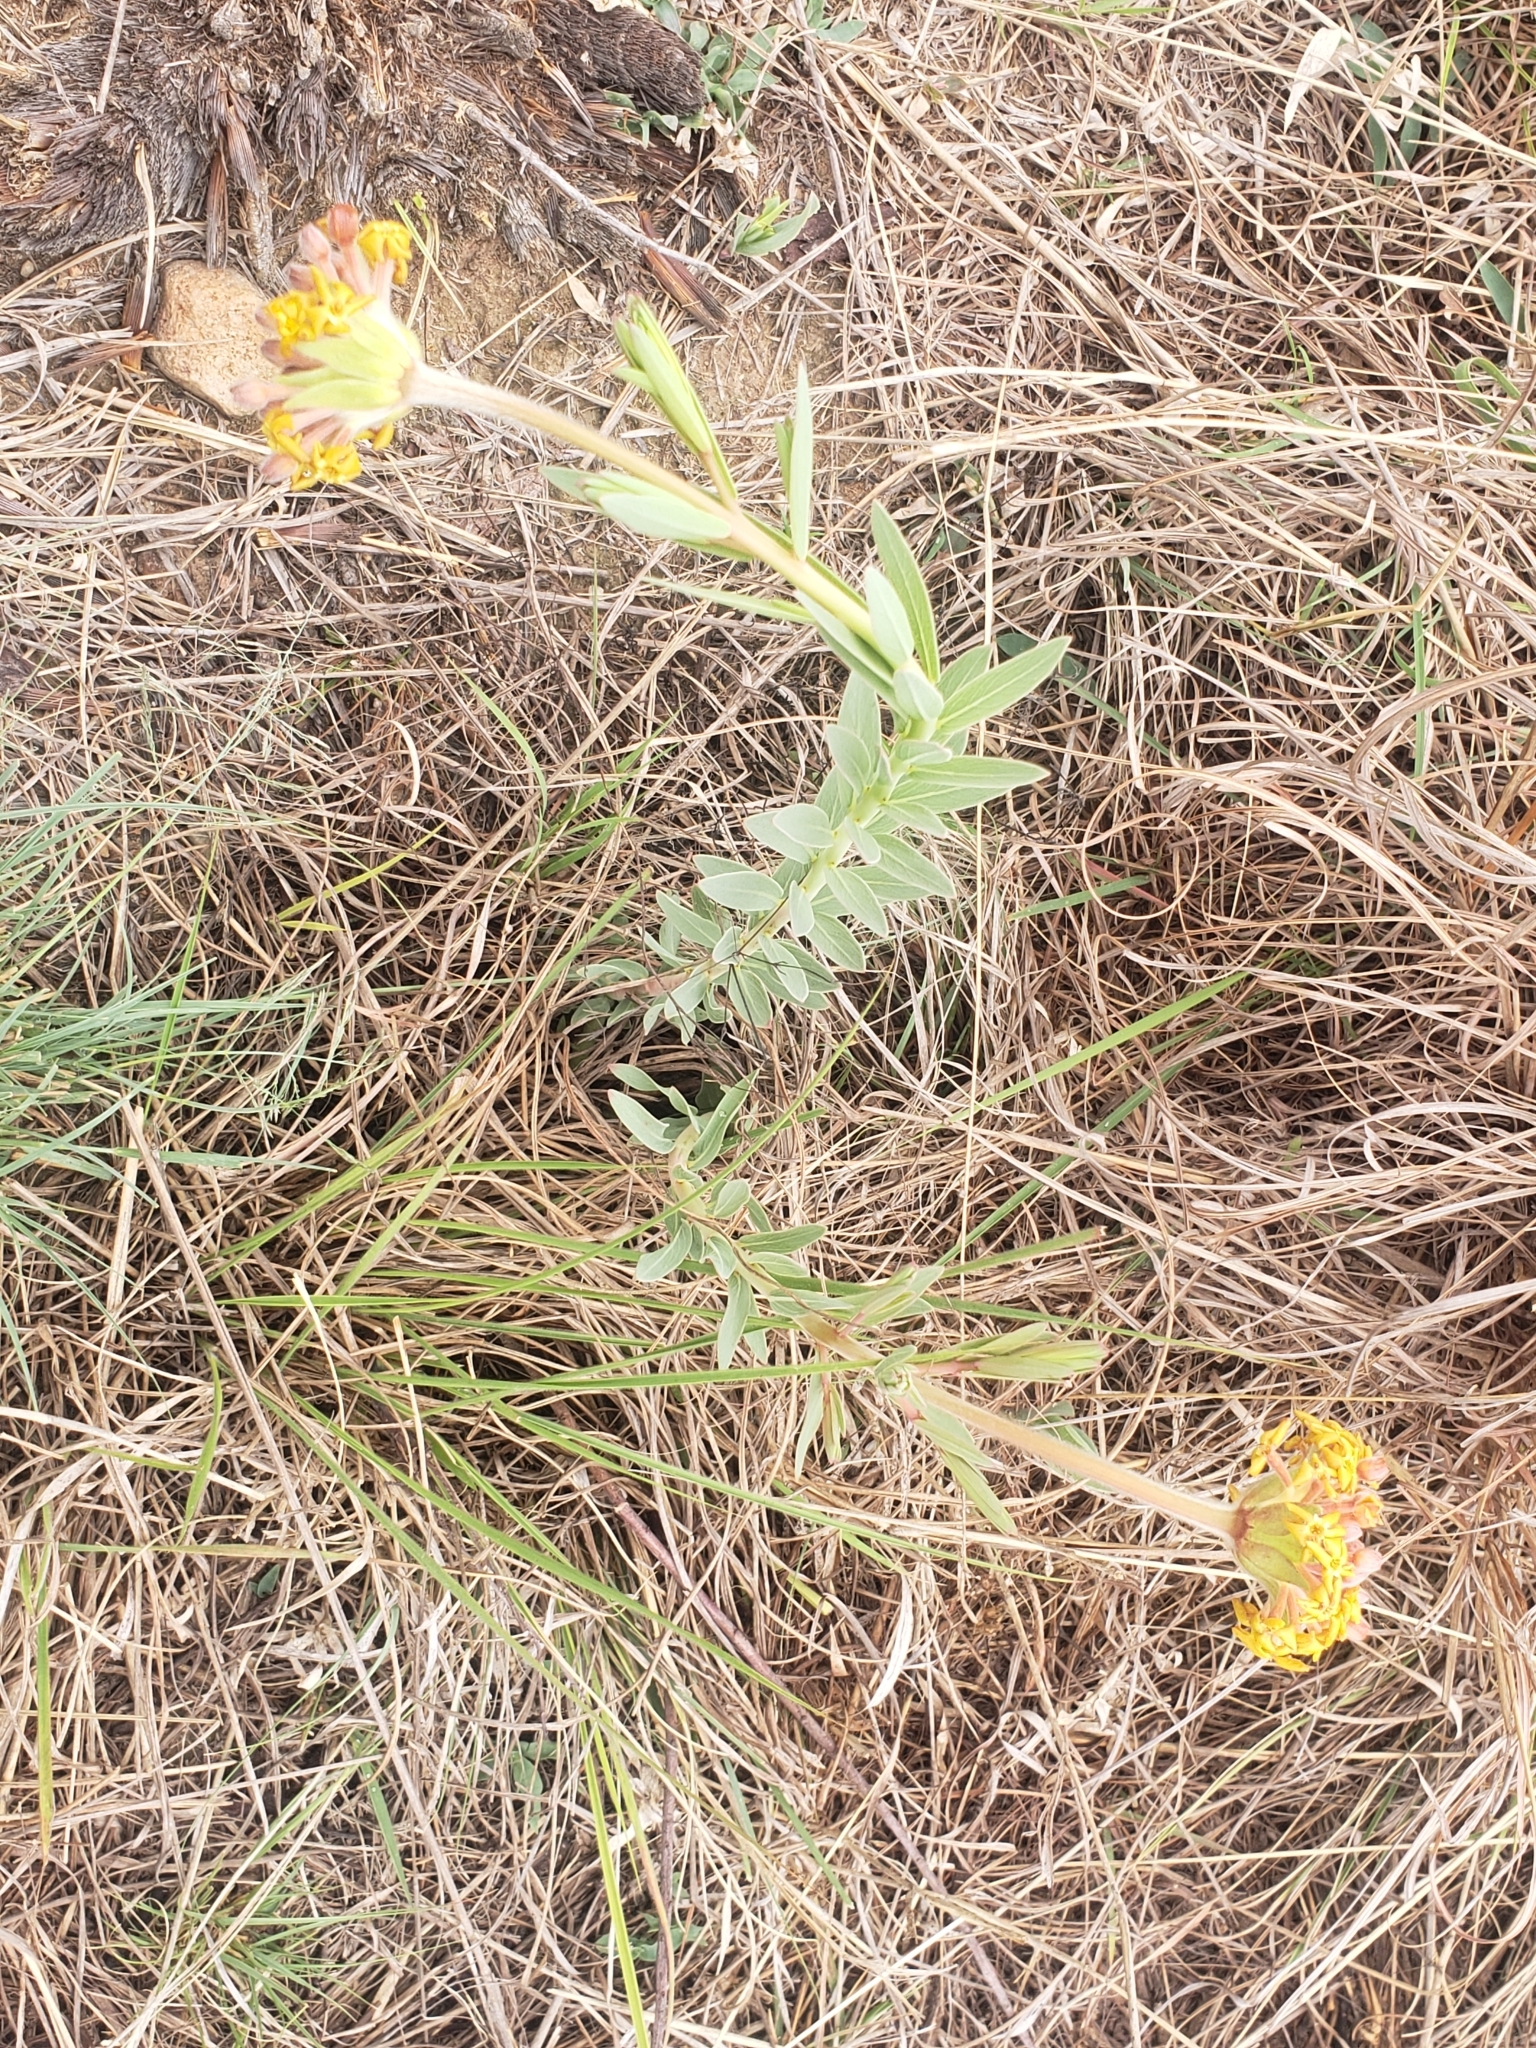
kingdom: Plantae
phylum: Tracheophyta
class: Magnoliopsida
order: Malvales
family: Thymelaeaceae
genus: Gnidia
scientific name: Gnidia kraussiana
